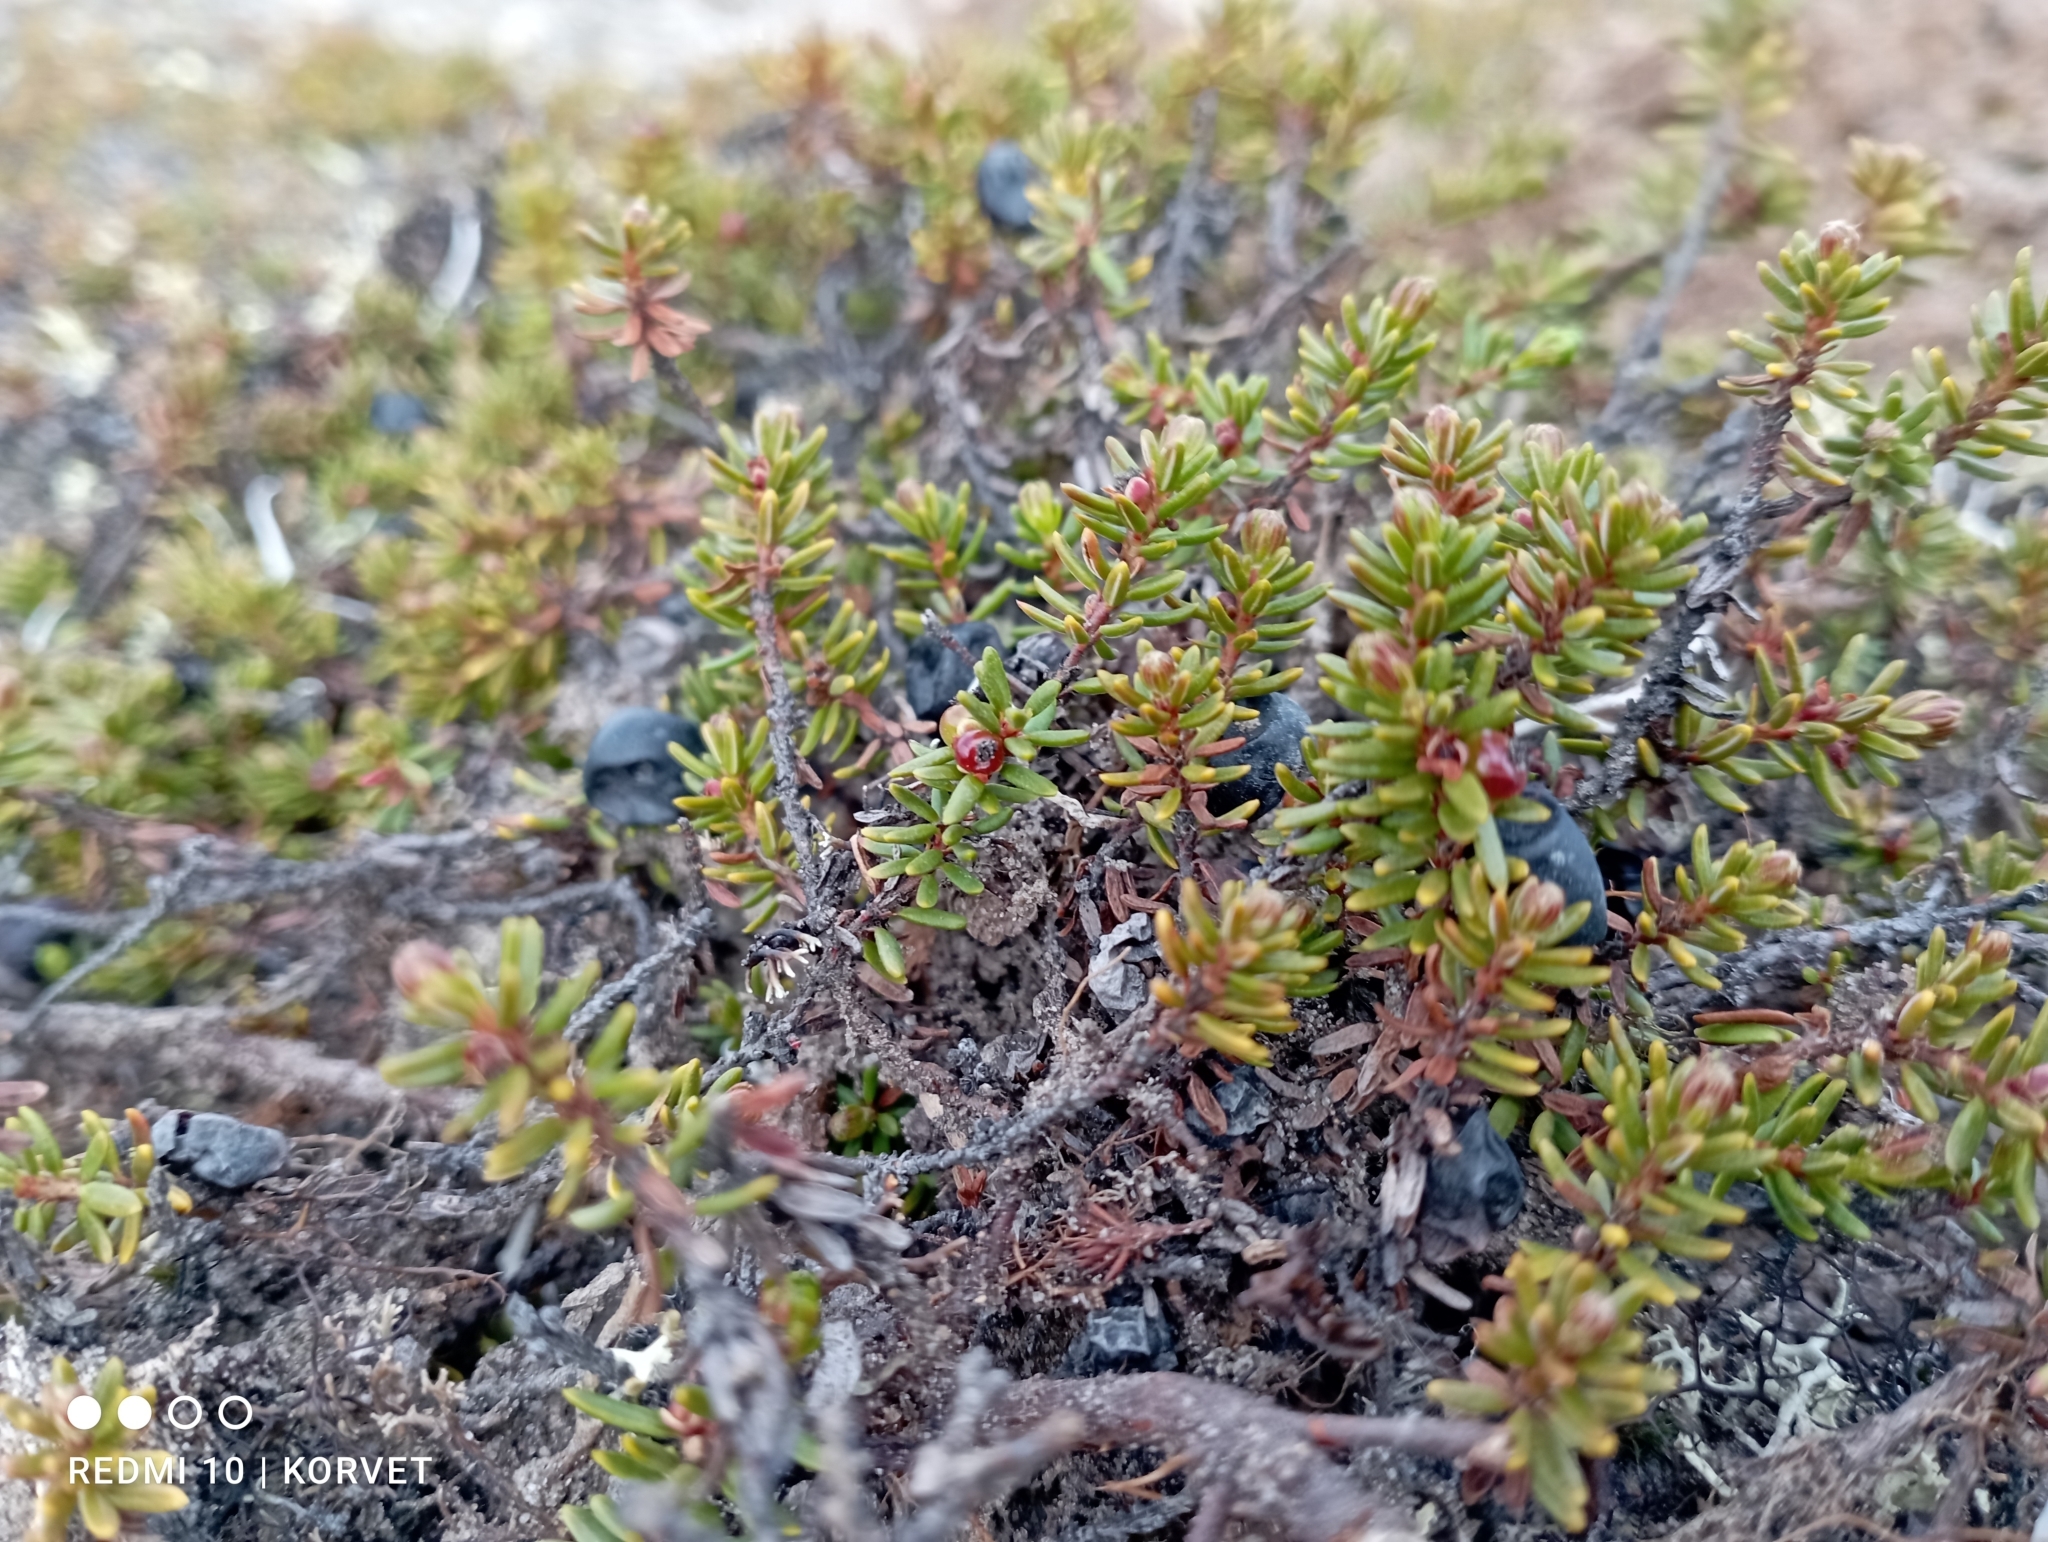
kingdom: Plantae
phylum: Tracheophyta
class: Magnoliopsida
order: Ericales
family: Ericaceae
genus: Empetrum
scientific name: Empetrum nigrum
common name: Black crowberry
